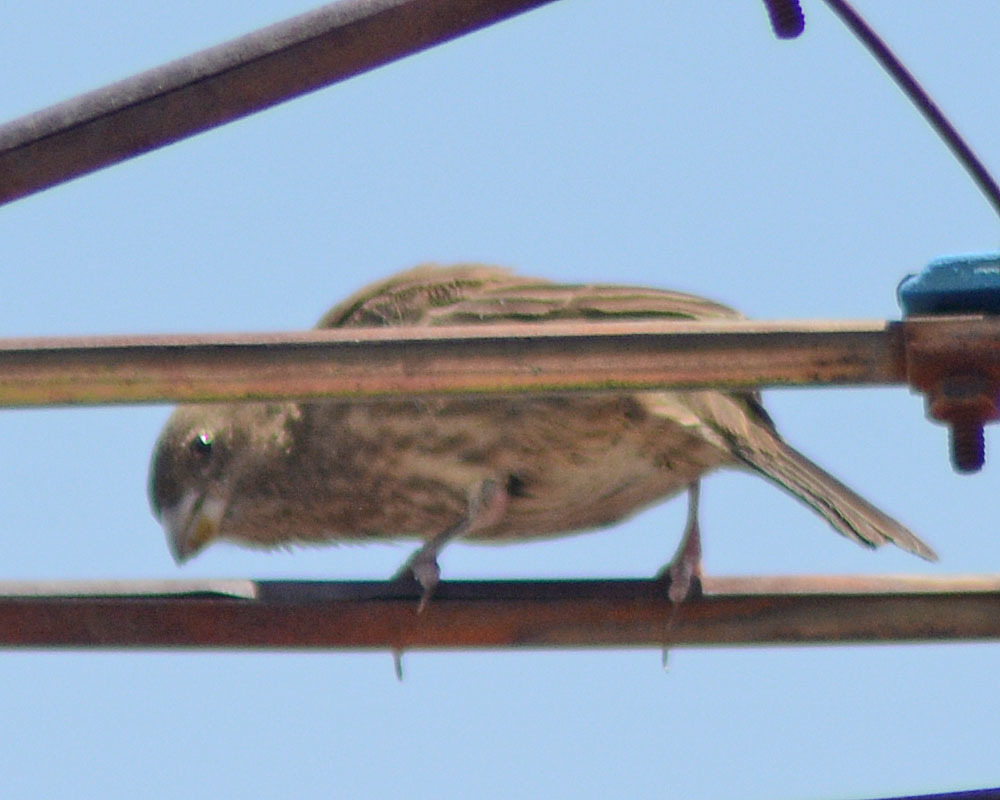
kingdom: Animalia
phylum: Chordata
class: Aves
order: Passeriformes
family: Fringillidae
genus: Haemorhous
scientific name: Haemorhous mexicanus
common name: House finch
